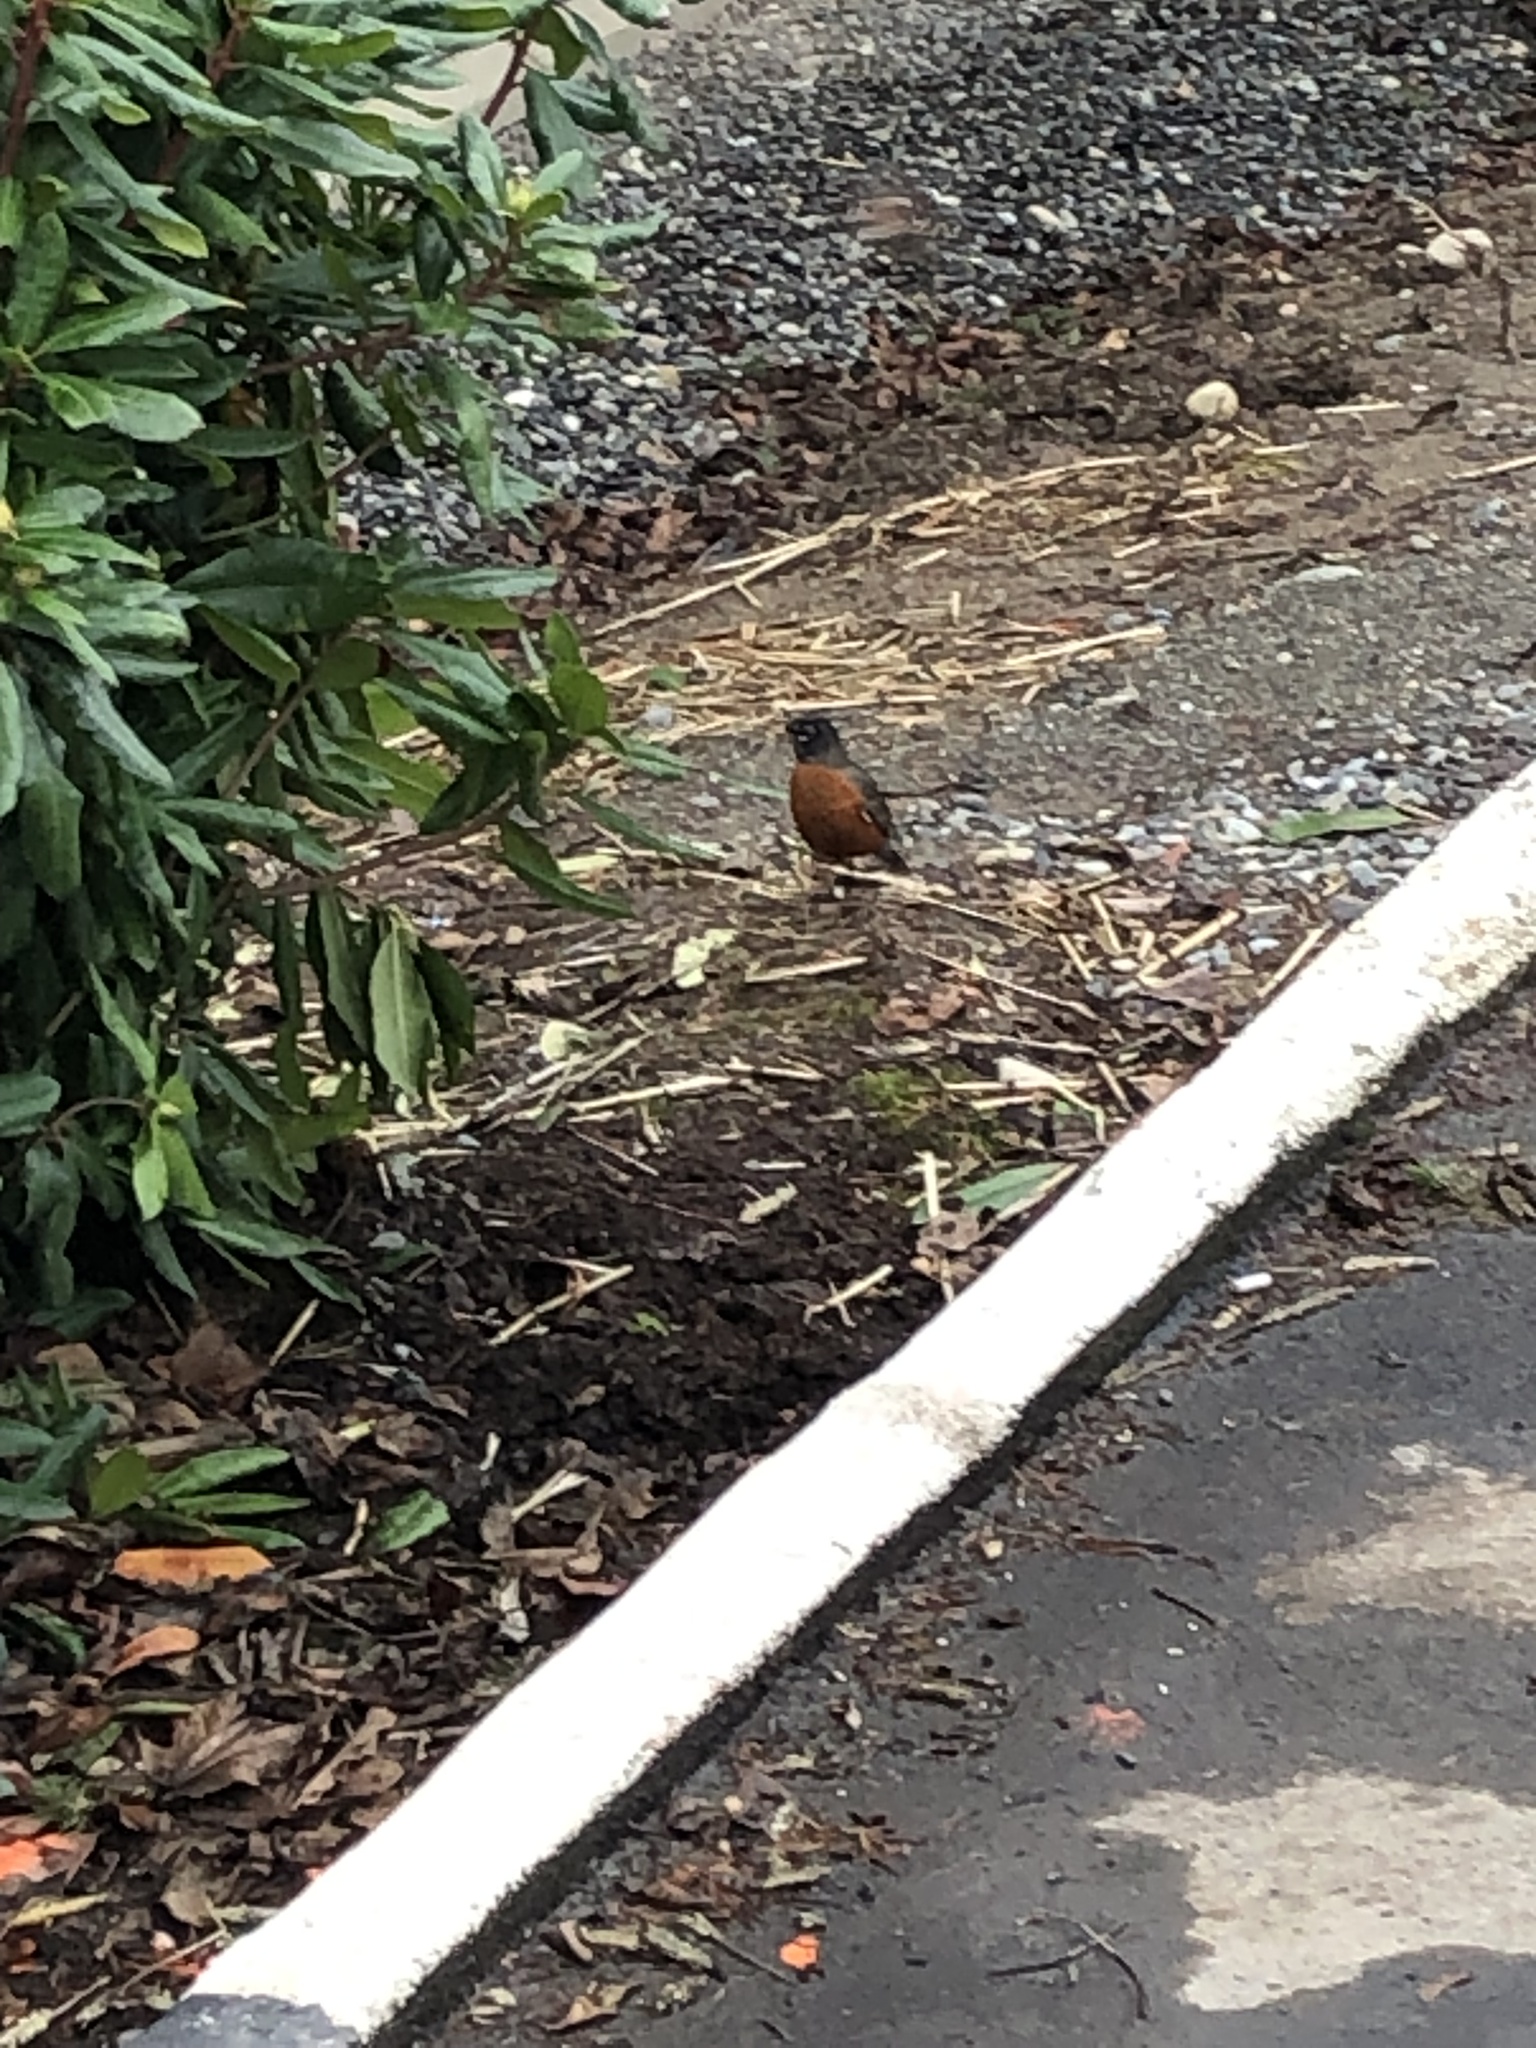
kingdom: Animalia
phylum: Chordata
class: Aves
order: Passeriformes
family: Turdidae
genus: Turdus
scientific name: Turdus migratorius
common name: American robin
